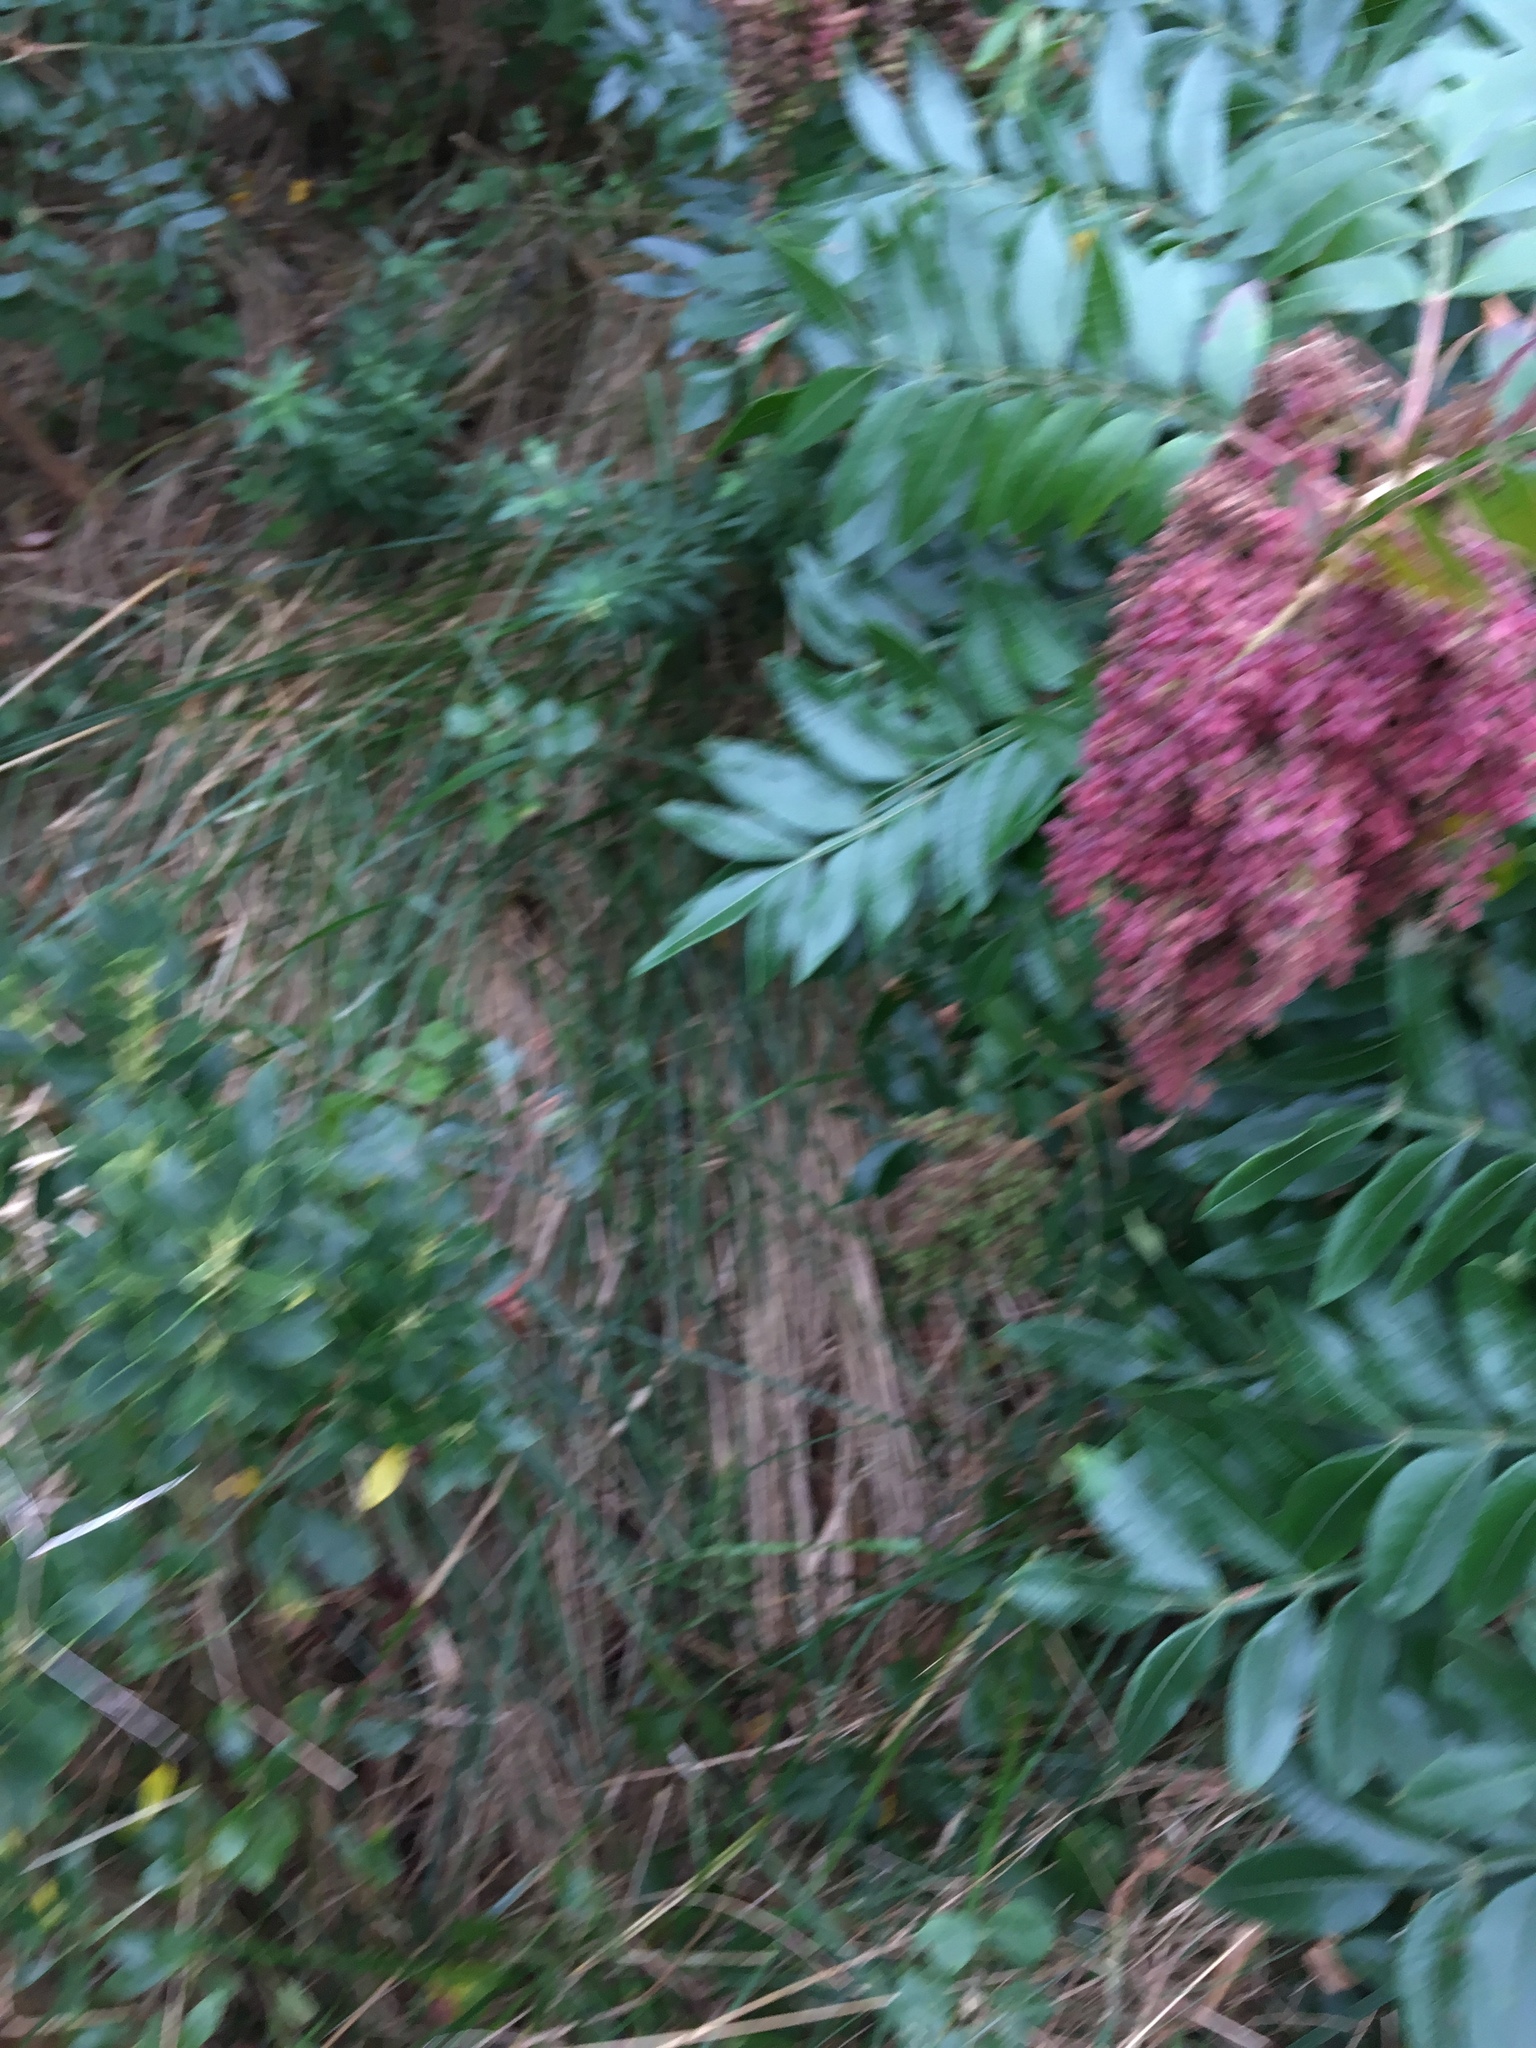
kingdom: Plantae
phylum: Tracheophyta
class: Magnoliopsida
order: Sapindales
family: Anacardiaceae
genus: Rhus
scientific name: Rhus copallina
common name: Shining sumac
